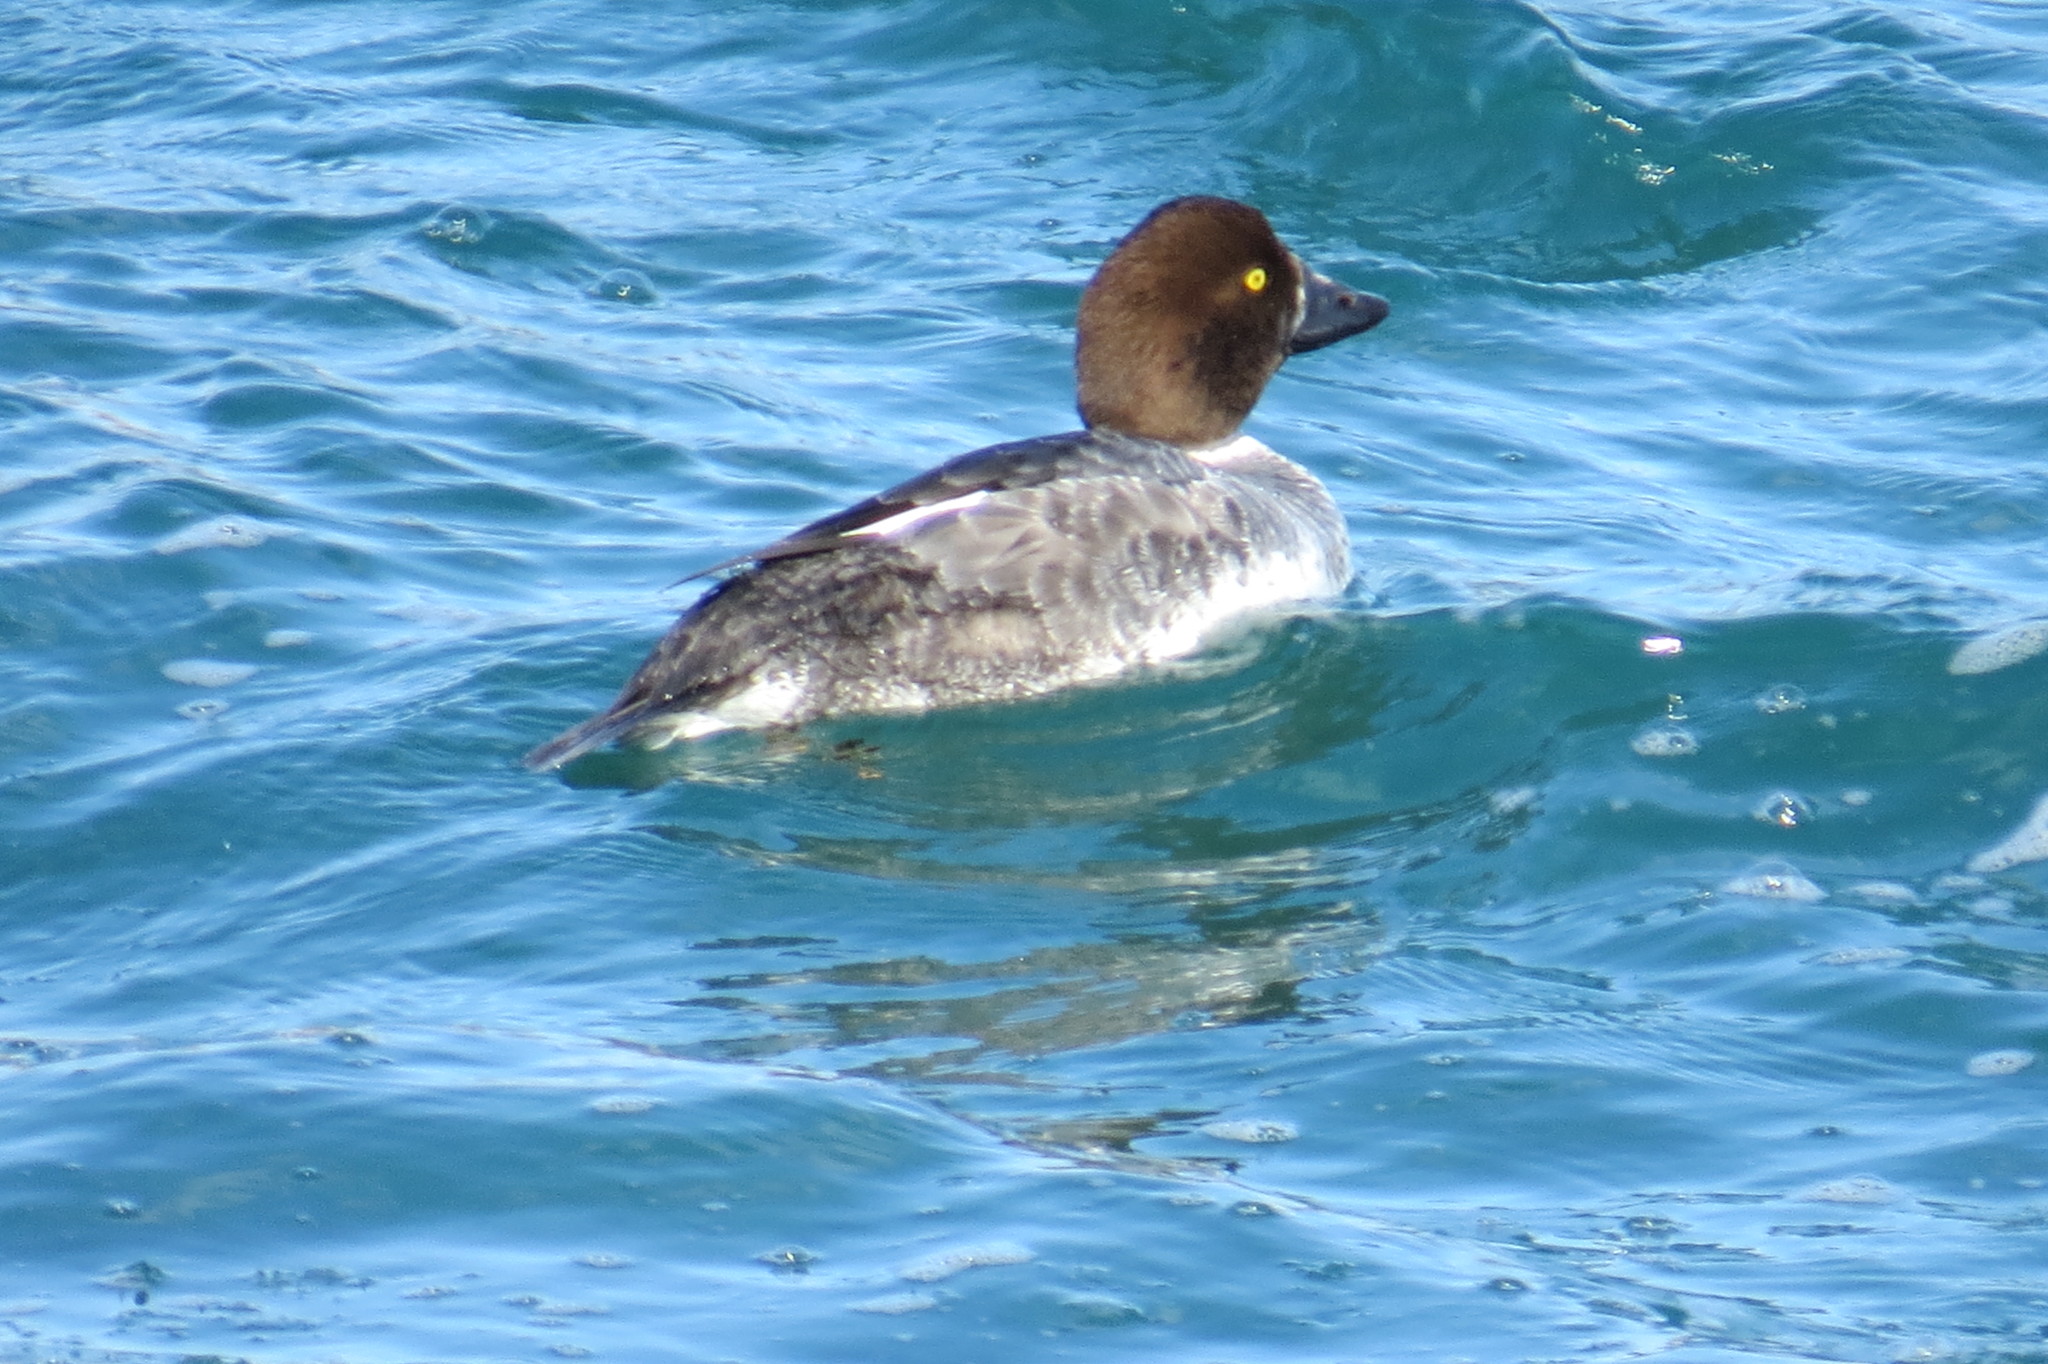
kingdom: Animalia
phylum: Chordata
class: Aves
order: Anseriformes
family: Anatidae
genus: Bucephala
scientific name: Bucephala clangula
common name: Common goldeneye
